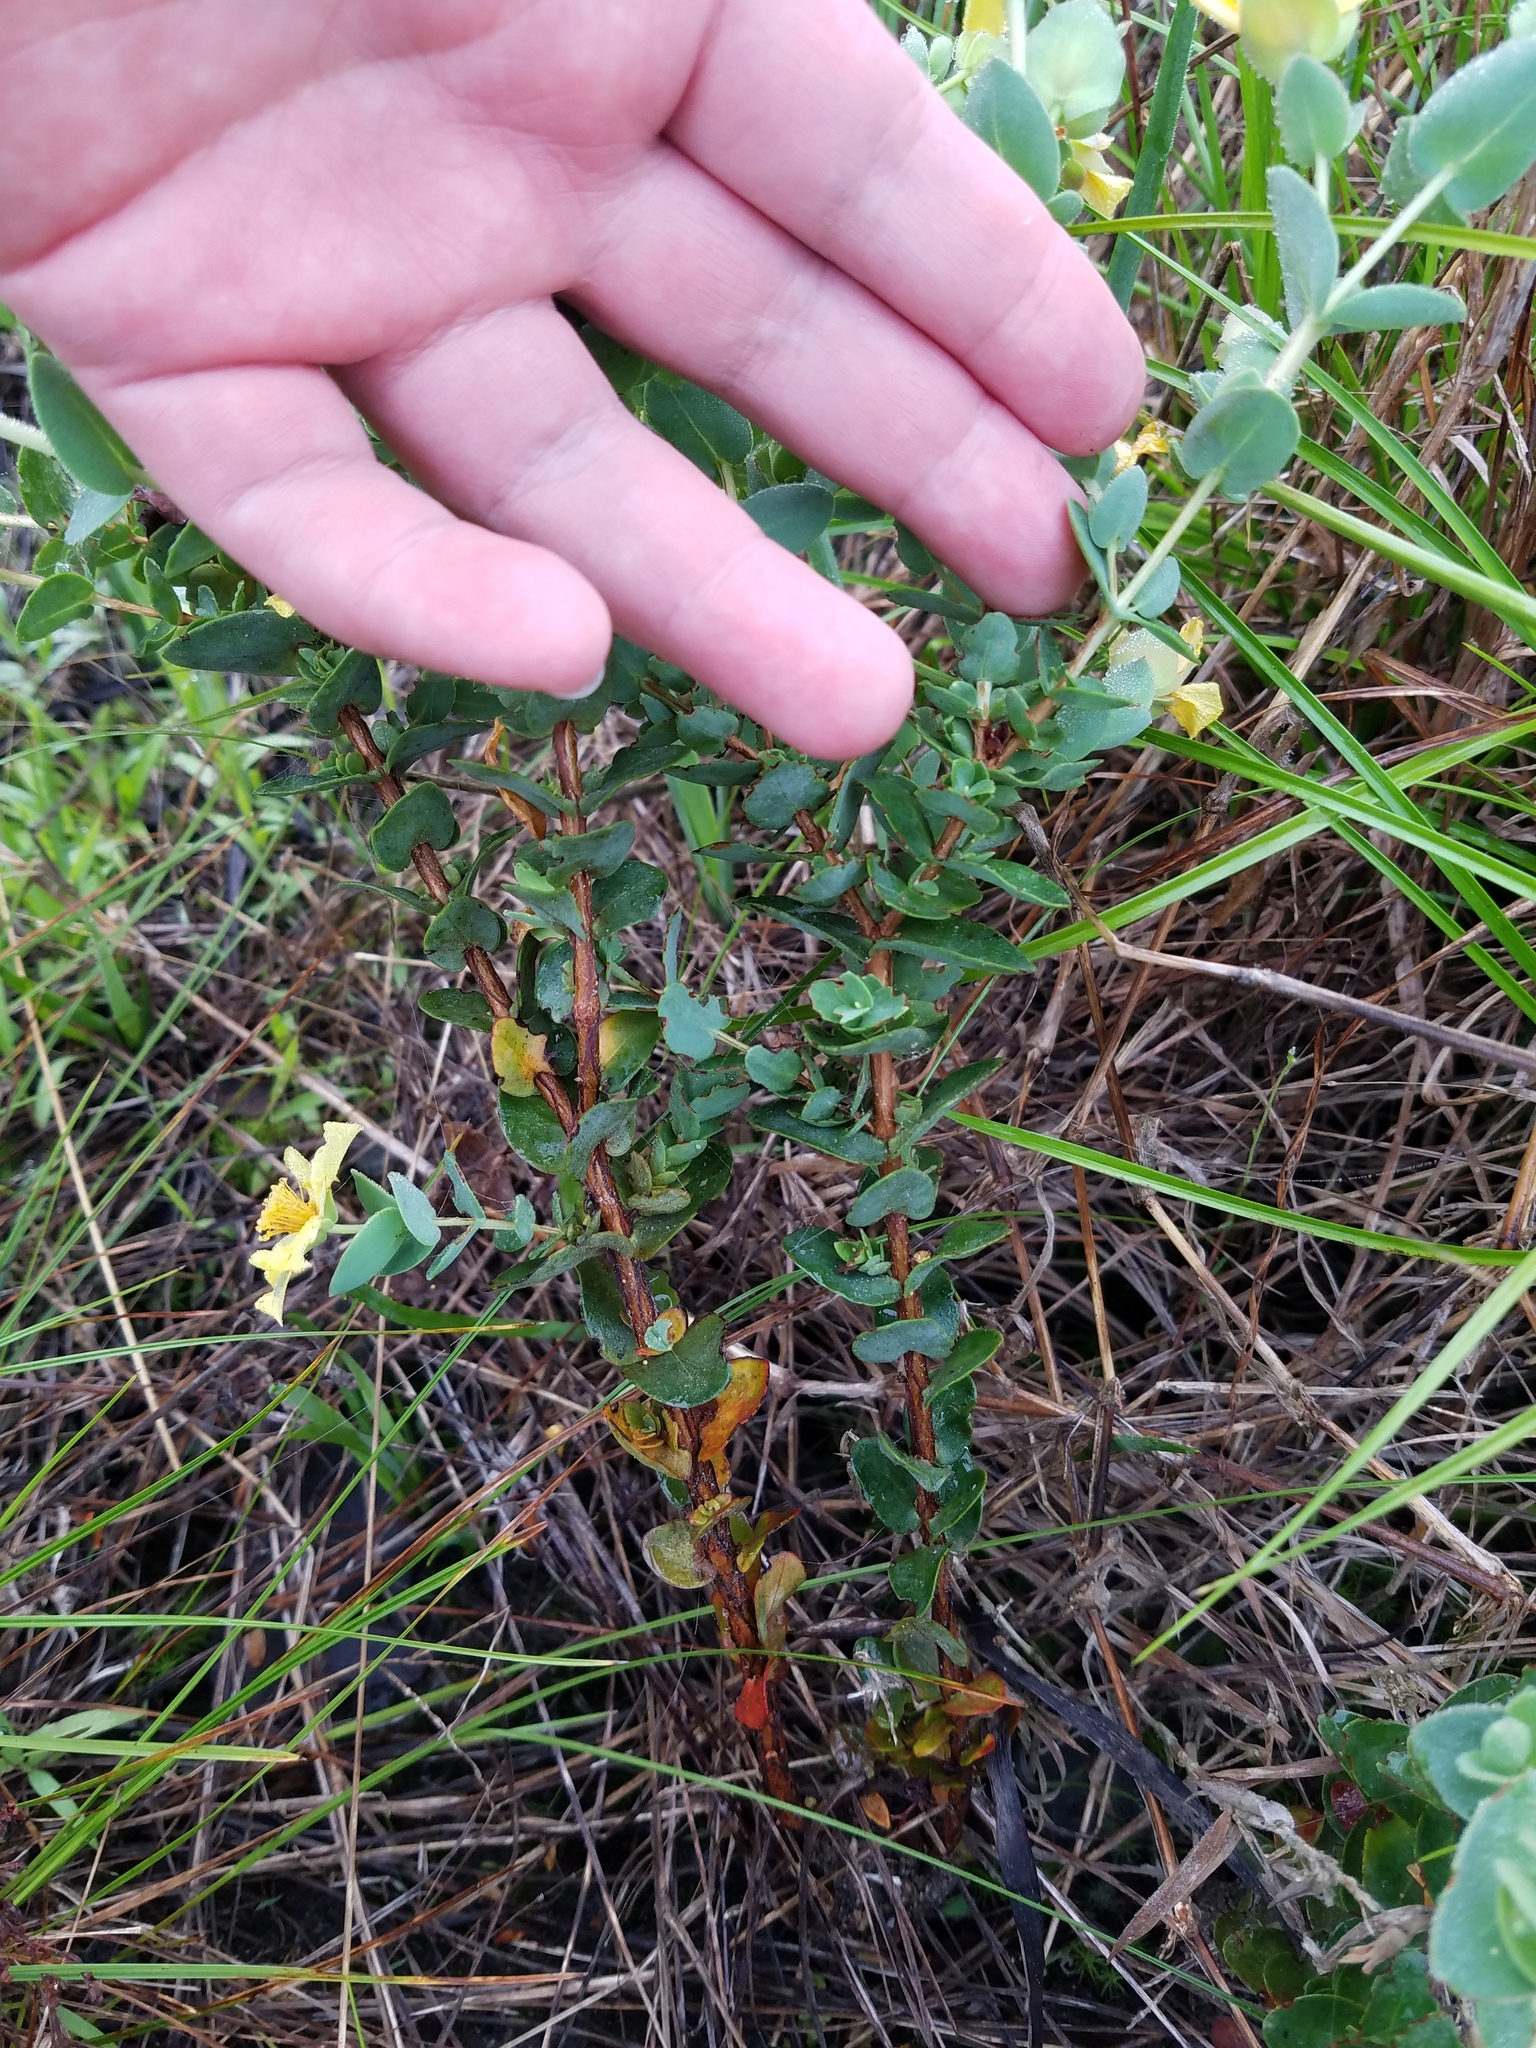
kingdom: Plantae
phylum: Tracheophyta
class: Magnoliopsida
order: Malpighiales
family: Hypericaceae
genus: Hypericum
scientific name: Hypericum tetrapetalum
